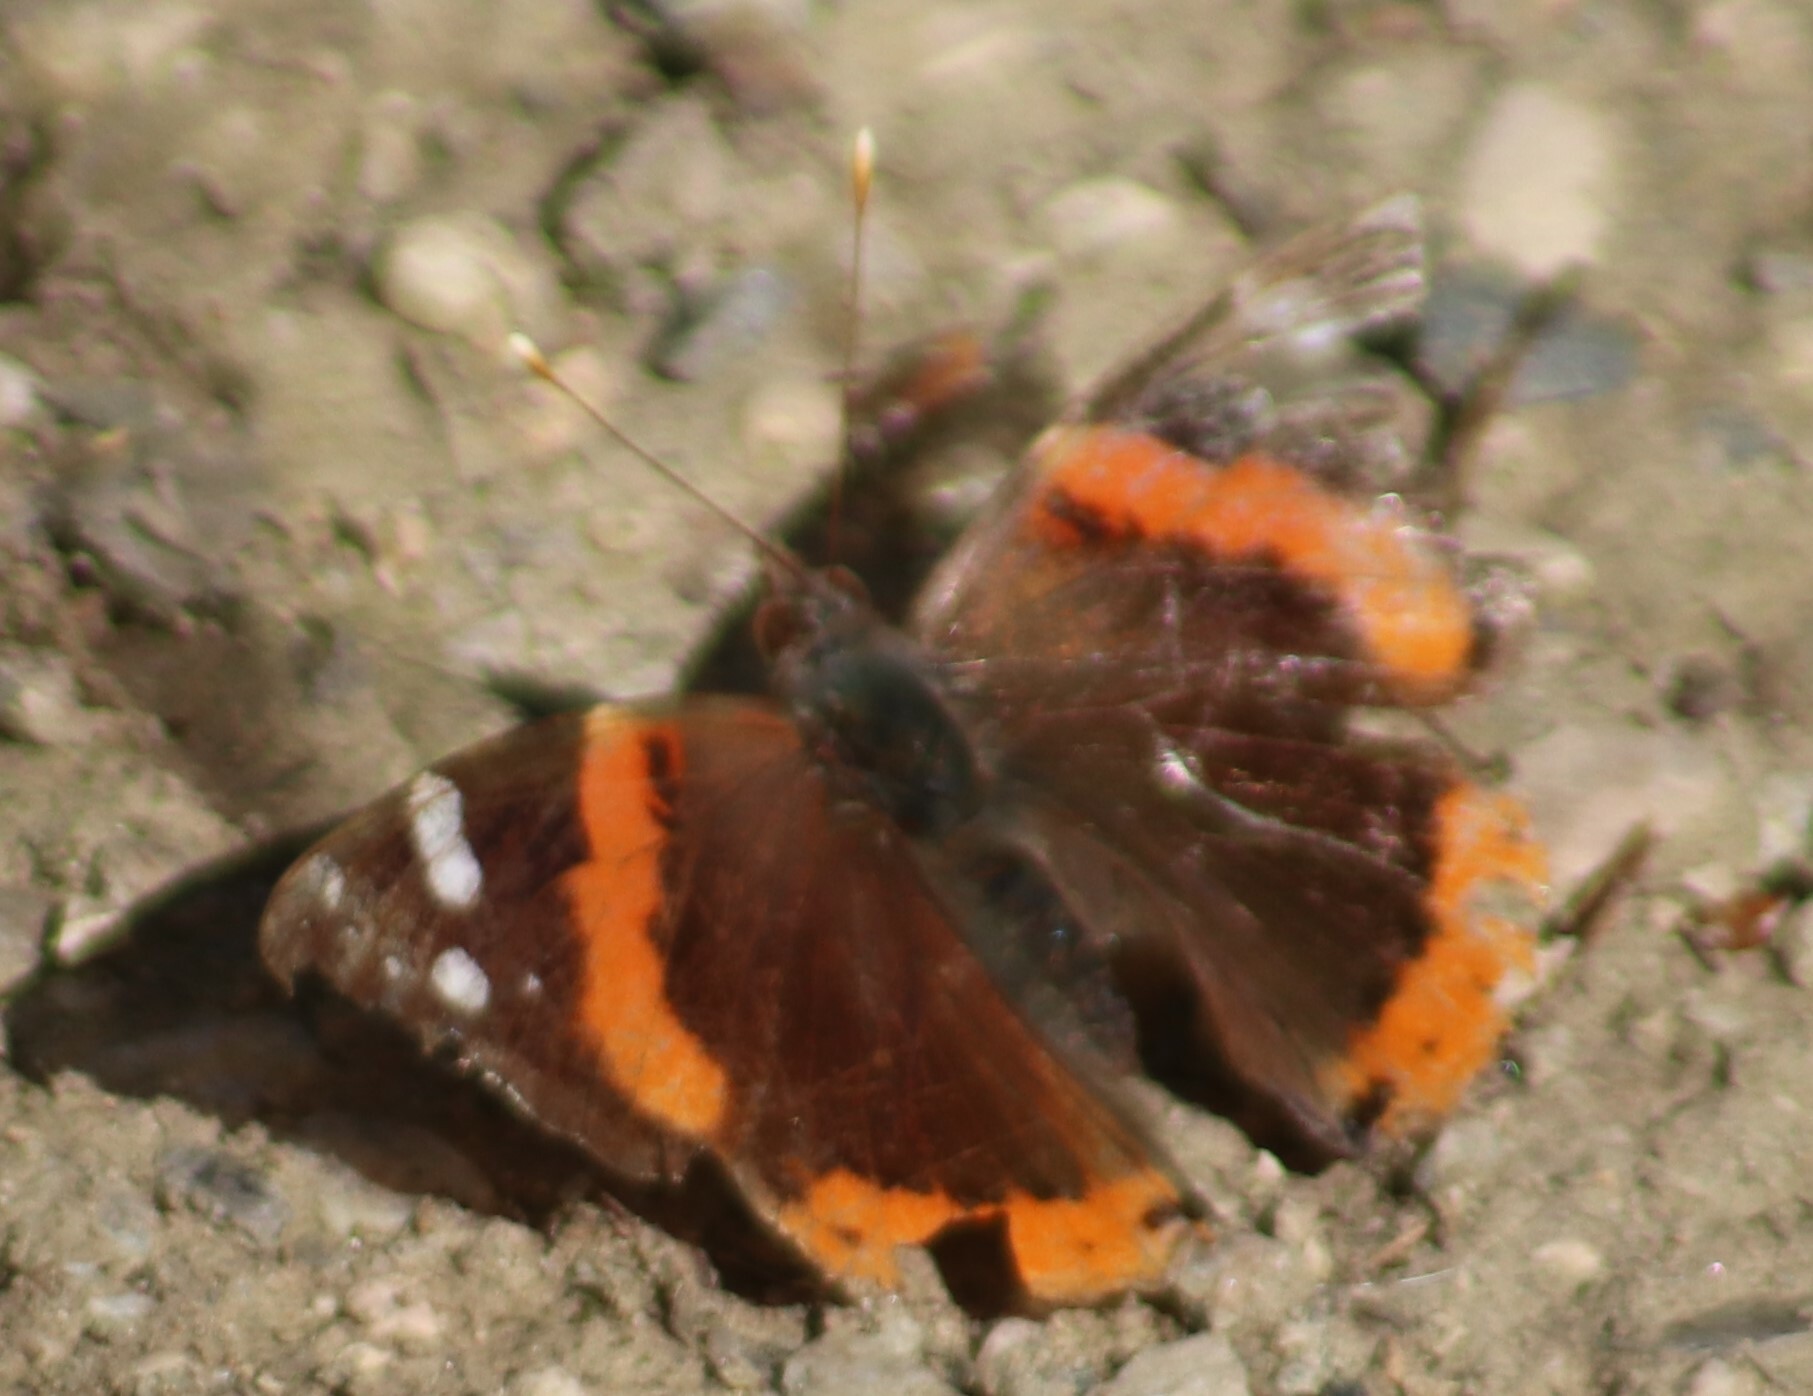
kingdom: Animalia
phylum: Arthropoda
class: Insecta
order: Lepidoptera
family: Nymphalidae
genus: Vanessa
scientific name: Vanessa atalanta
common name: Red admiral
